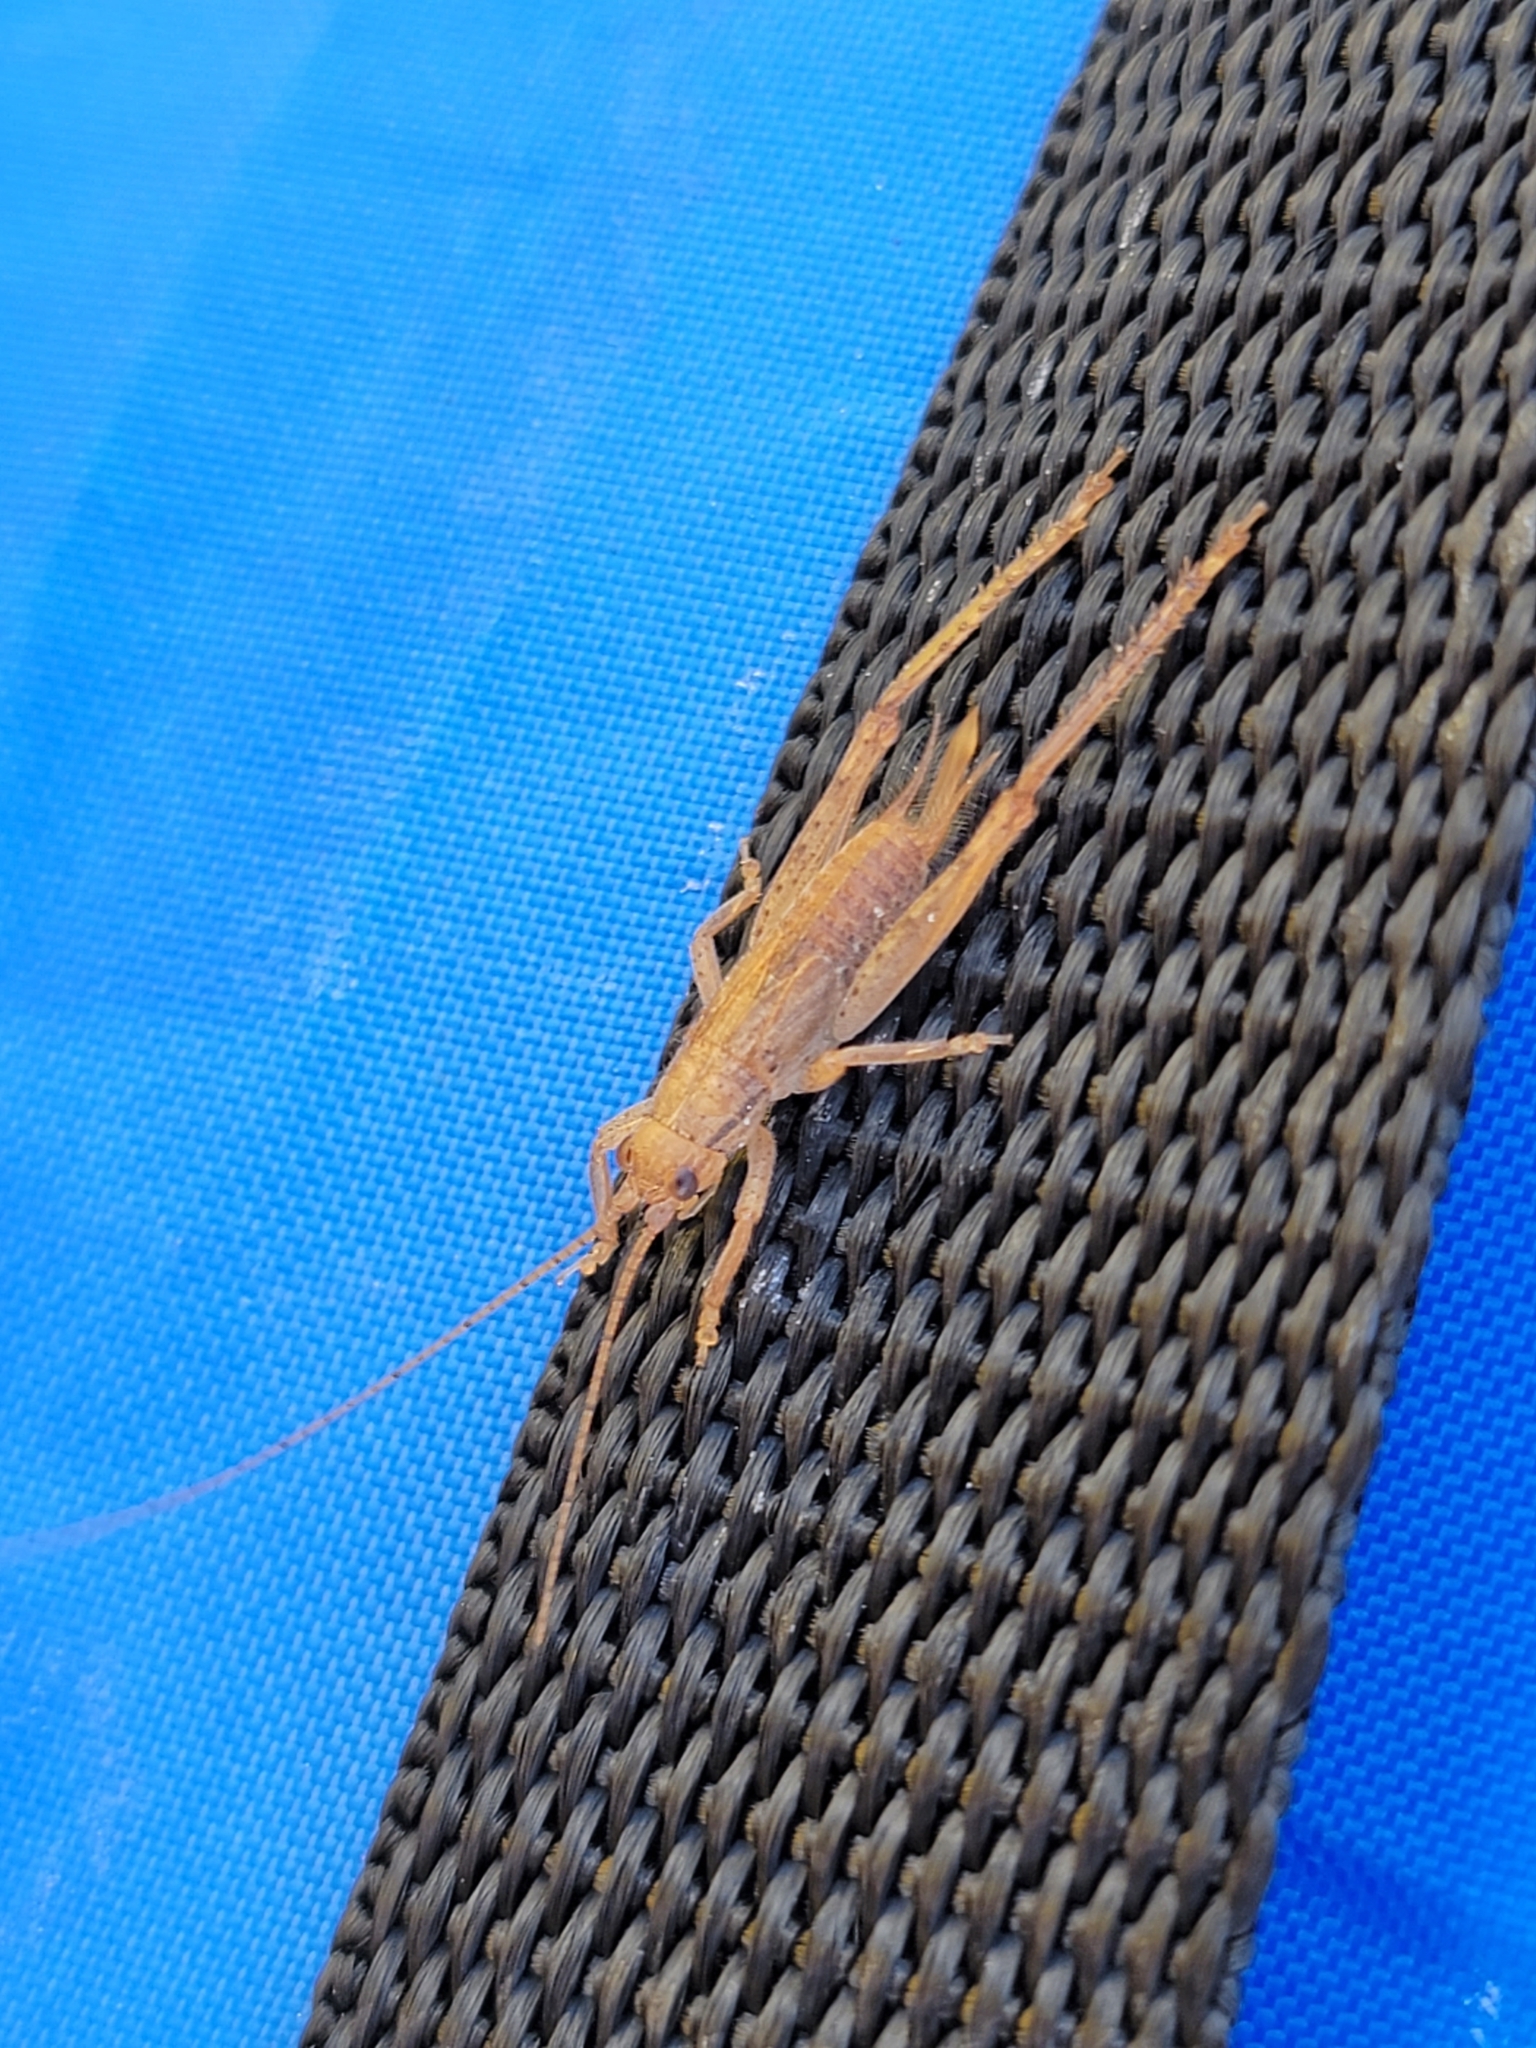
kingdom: Animalia
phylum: Arthropoda
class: Insecta
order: Orthoptera
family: Gryllidae
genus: Hapithus
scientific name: Hapithus oriobates
